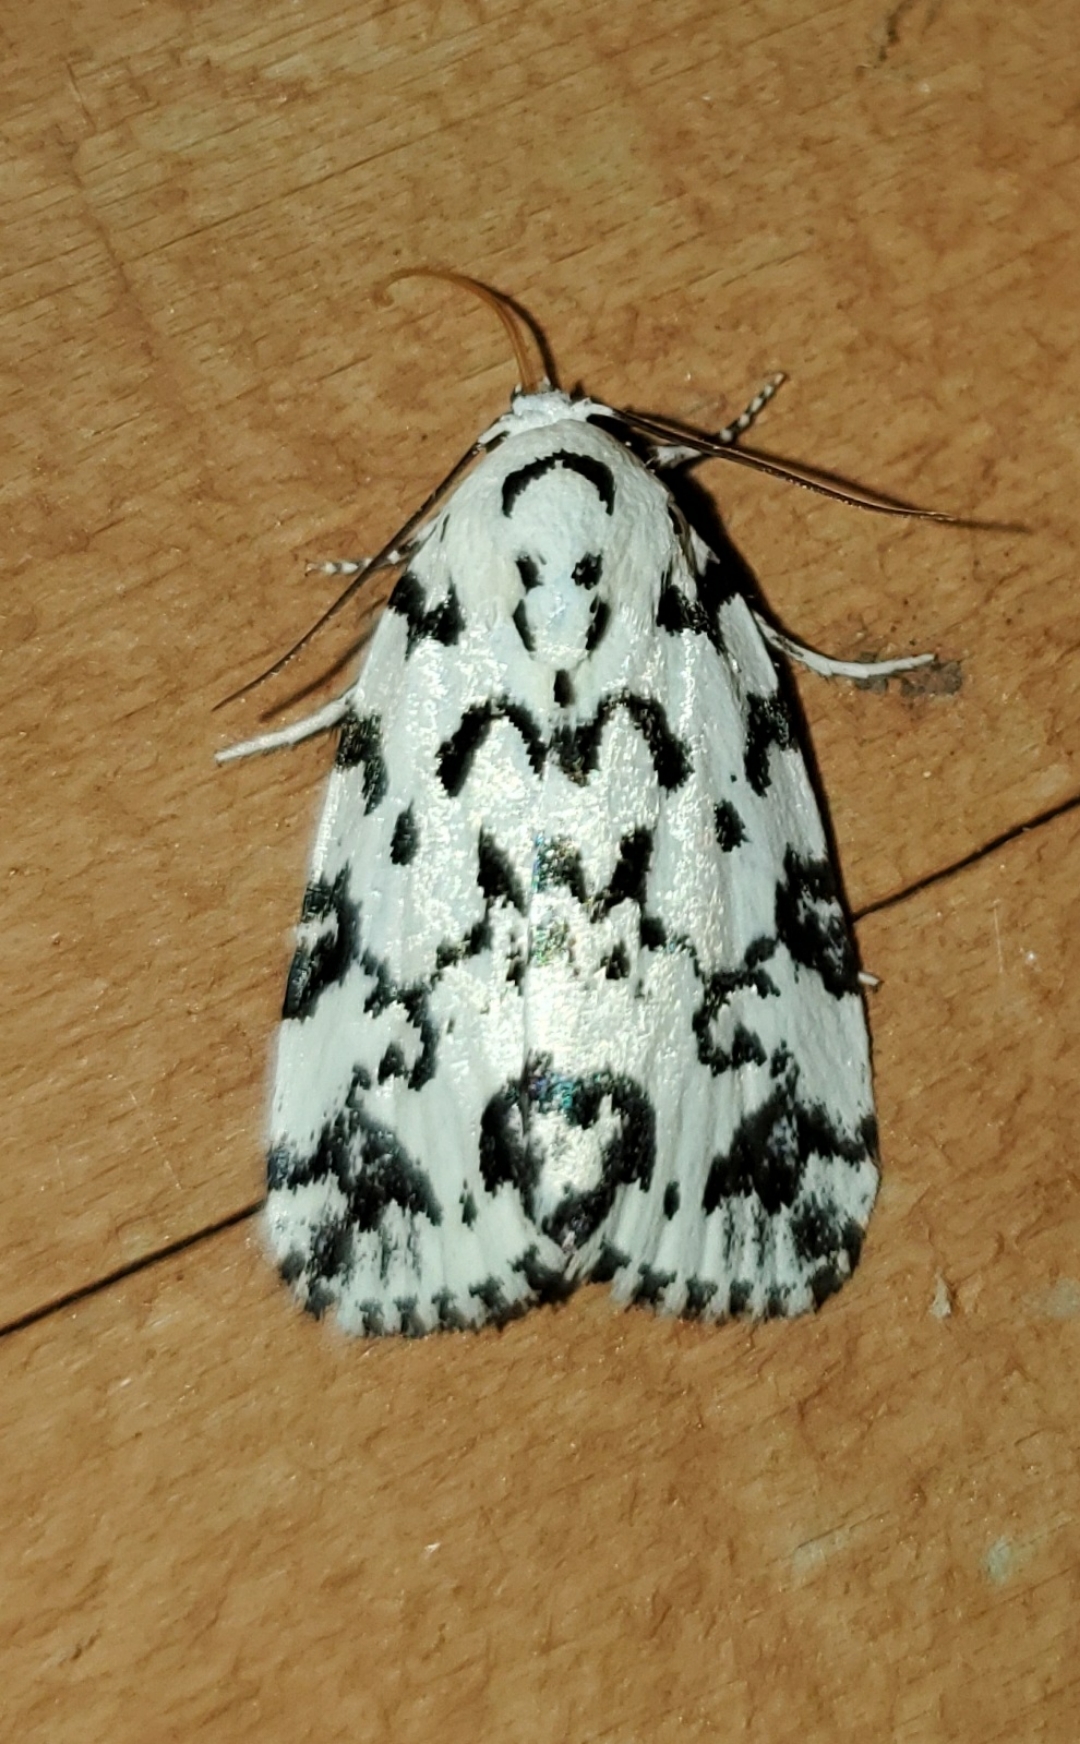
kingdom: Animalia
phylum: Arthropoda
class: Insecta
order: Lepidoptera
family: Noctuidae
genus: Polygrammate
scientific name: Polygrammate hebraeicum
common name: Hebrew moth
